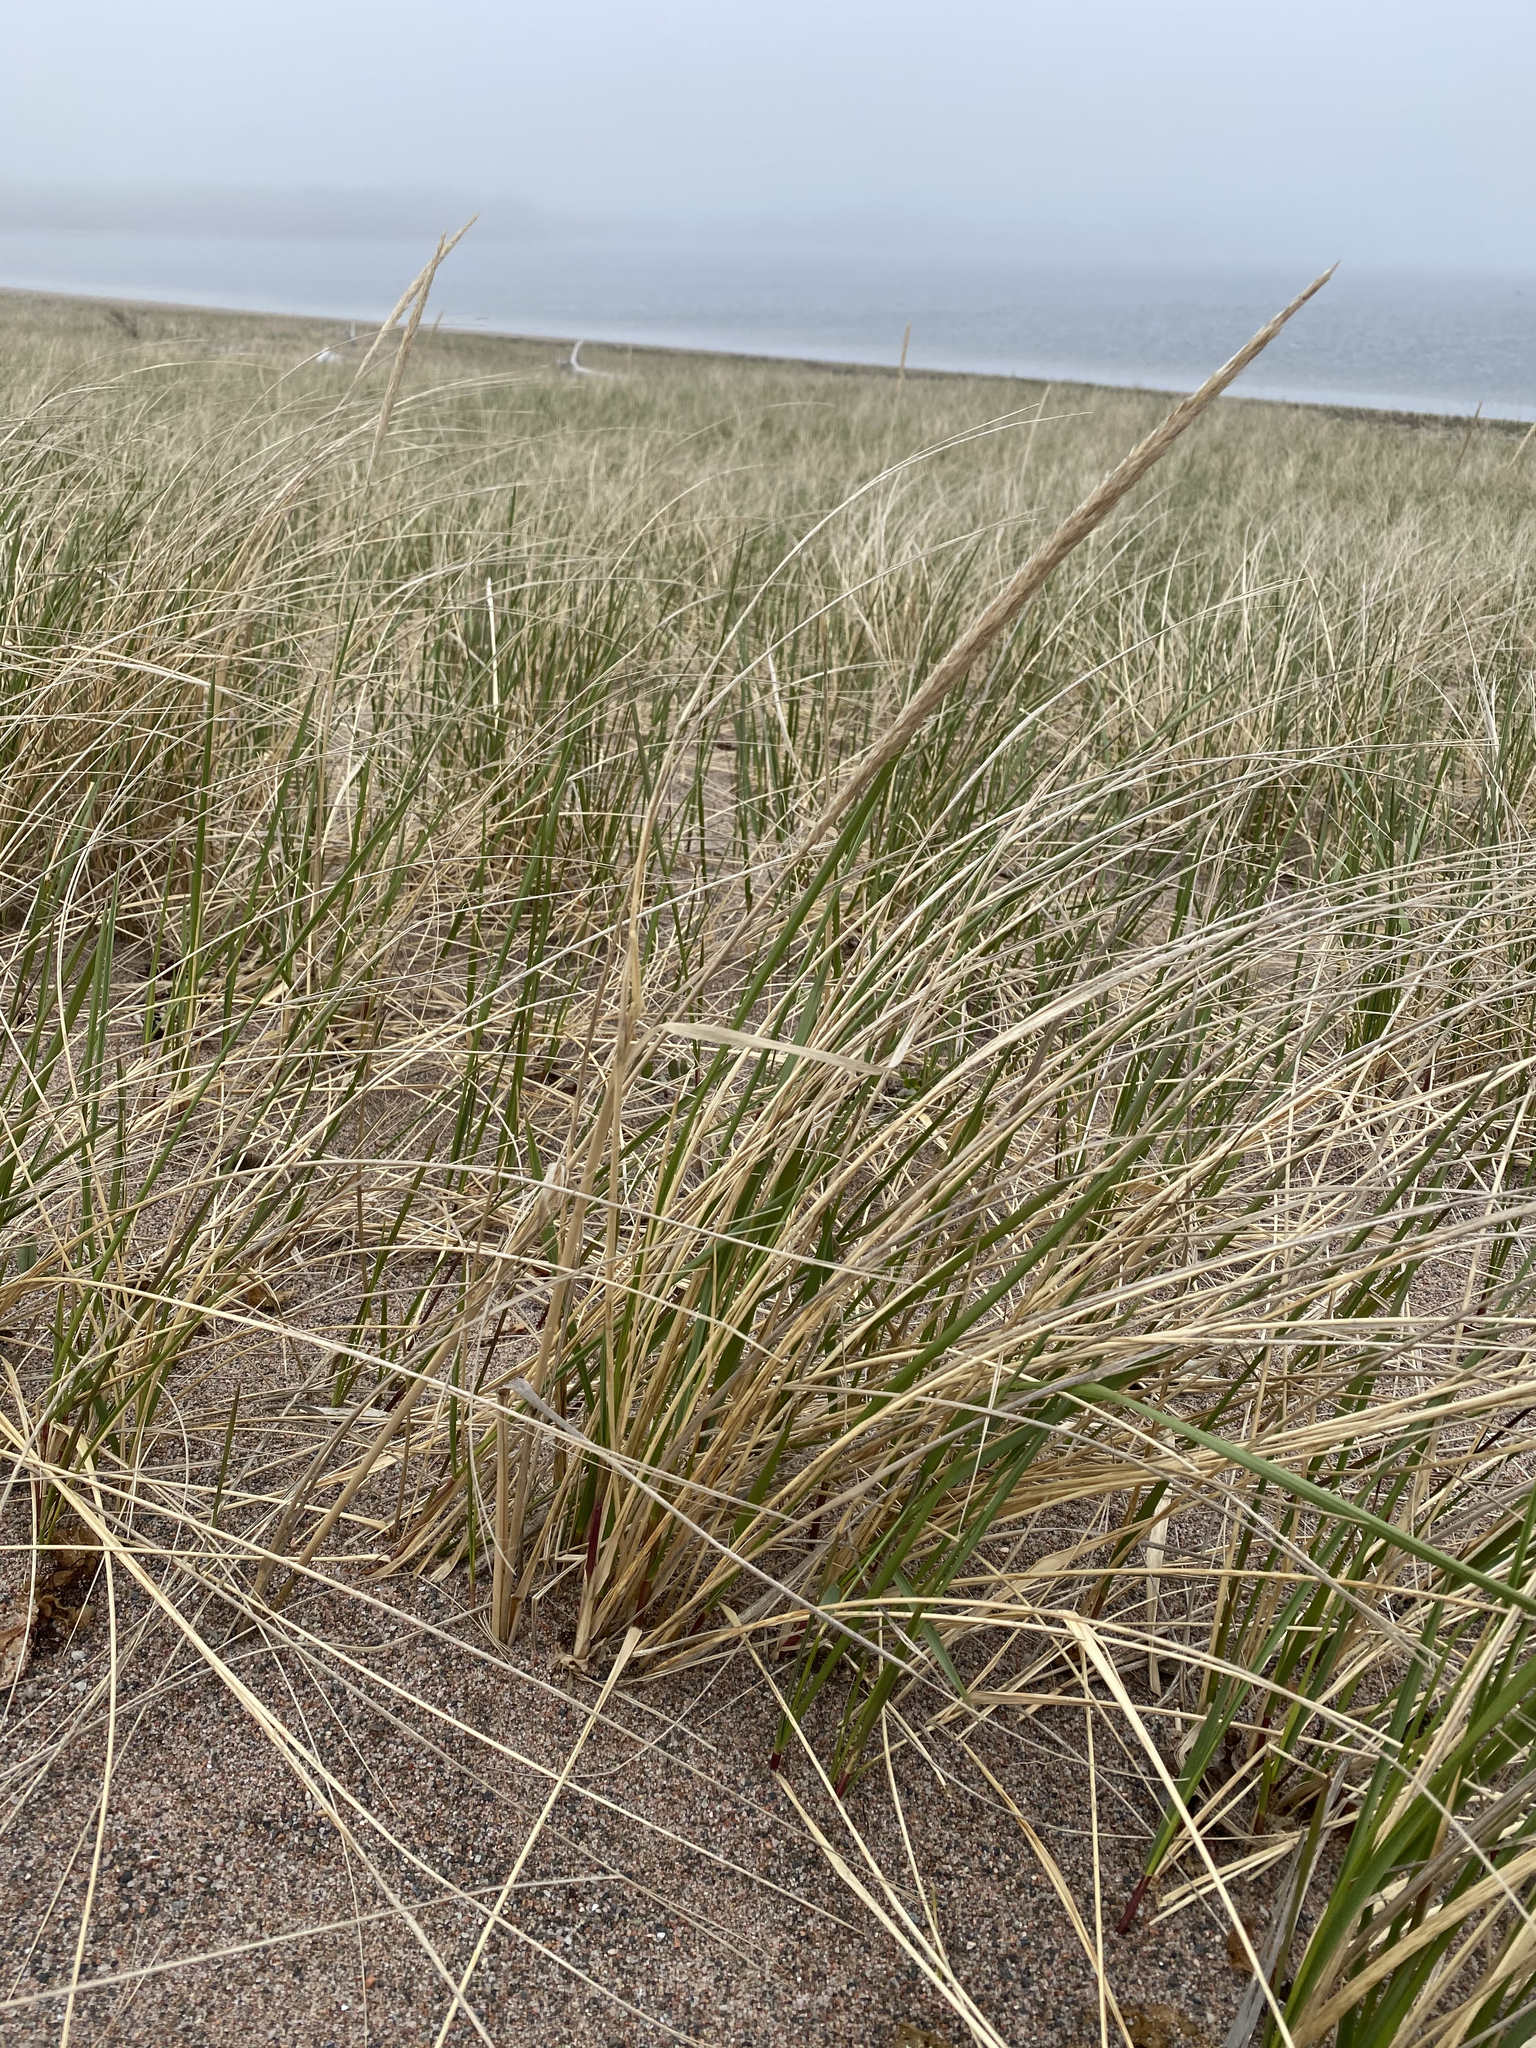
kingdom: Plantae
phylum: Tracheophyta
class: Liliopsida
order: Poales
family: Poaceae
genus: Calamagrostis
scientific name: Calamagrostis breviligulata
